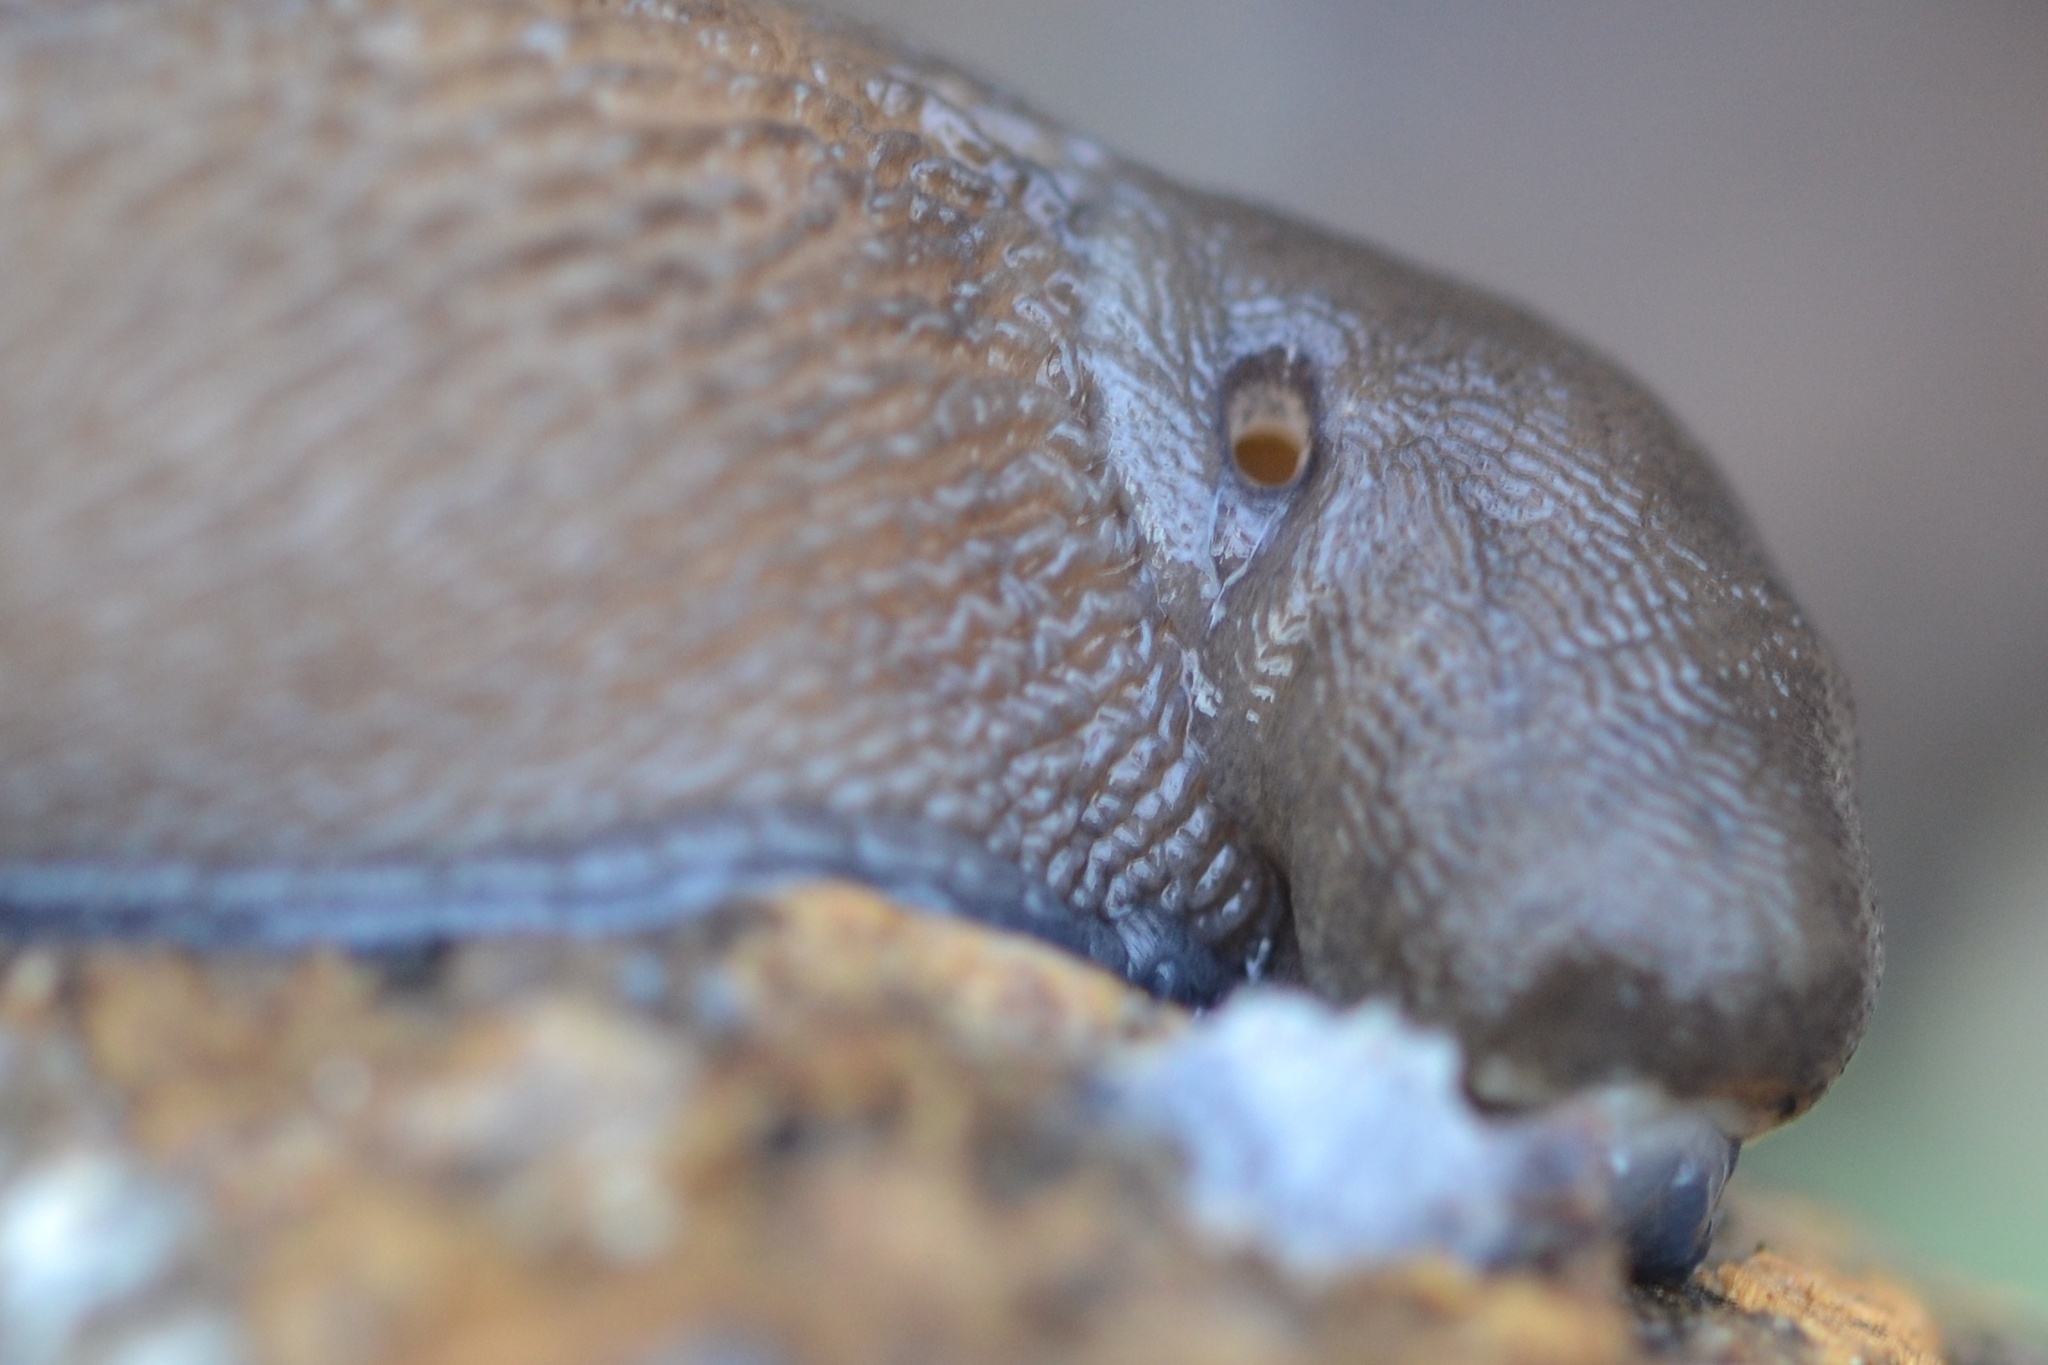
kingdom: Animalia
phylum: Mollusca
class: Gastropoda
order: Stylommatophora
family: Limacidae
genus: Limax
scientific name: Limax cinereoniger
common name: Ash-black slug
